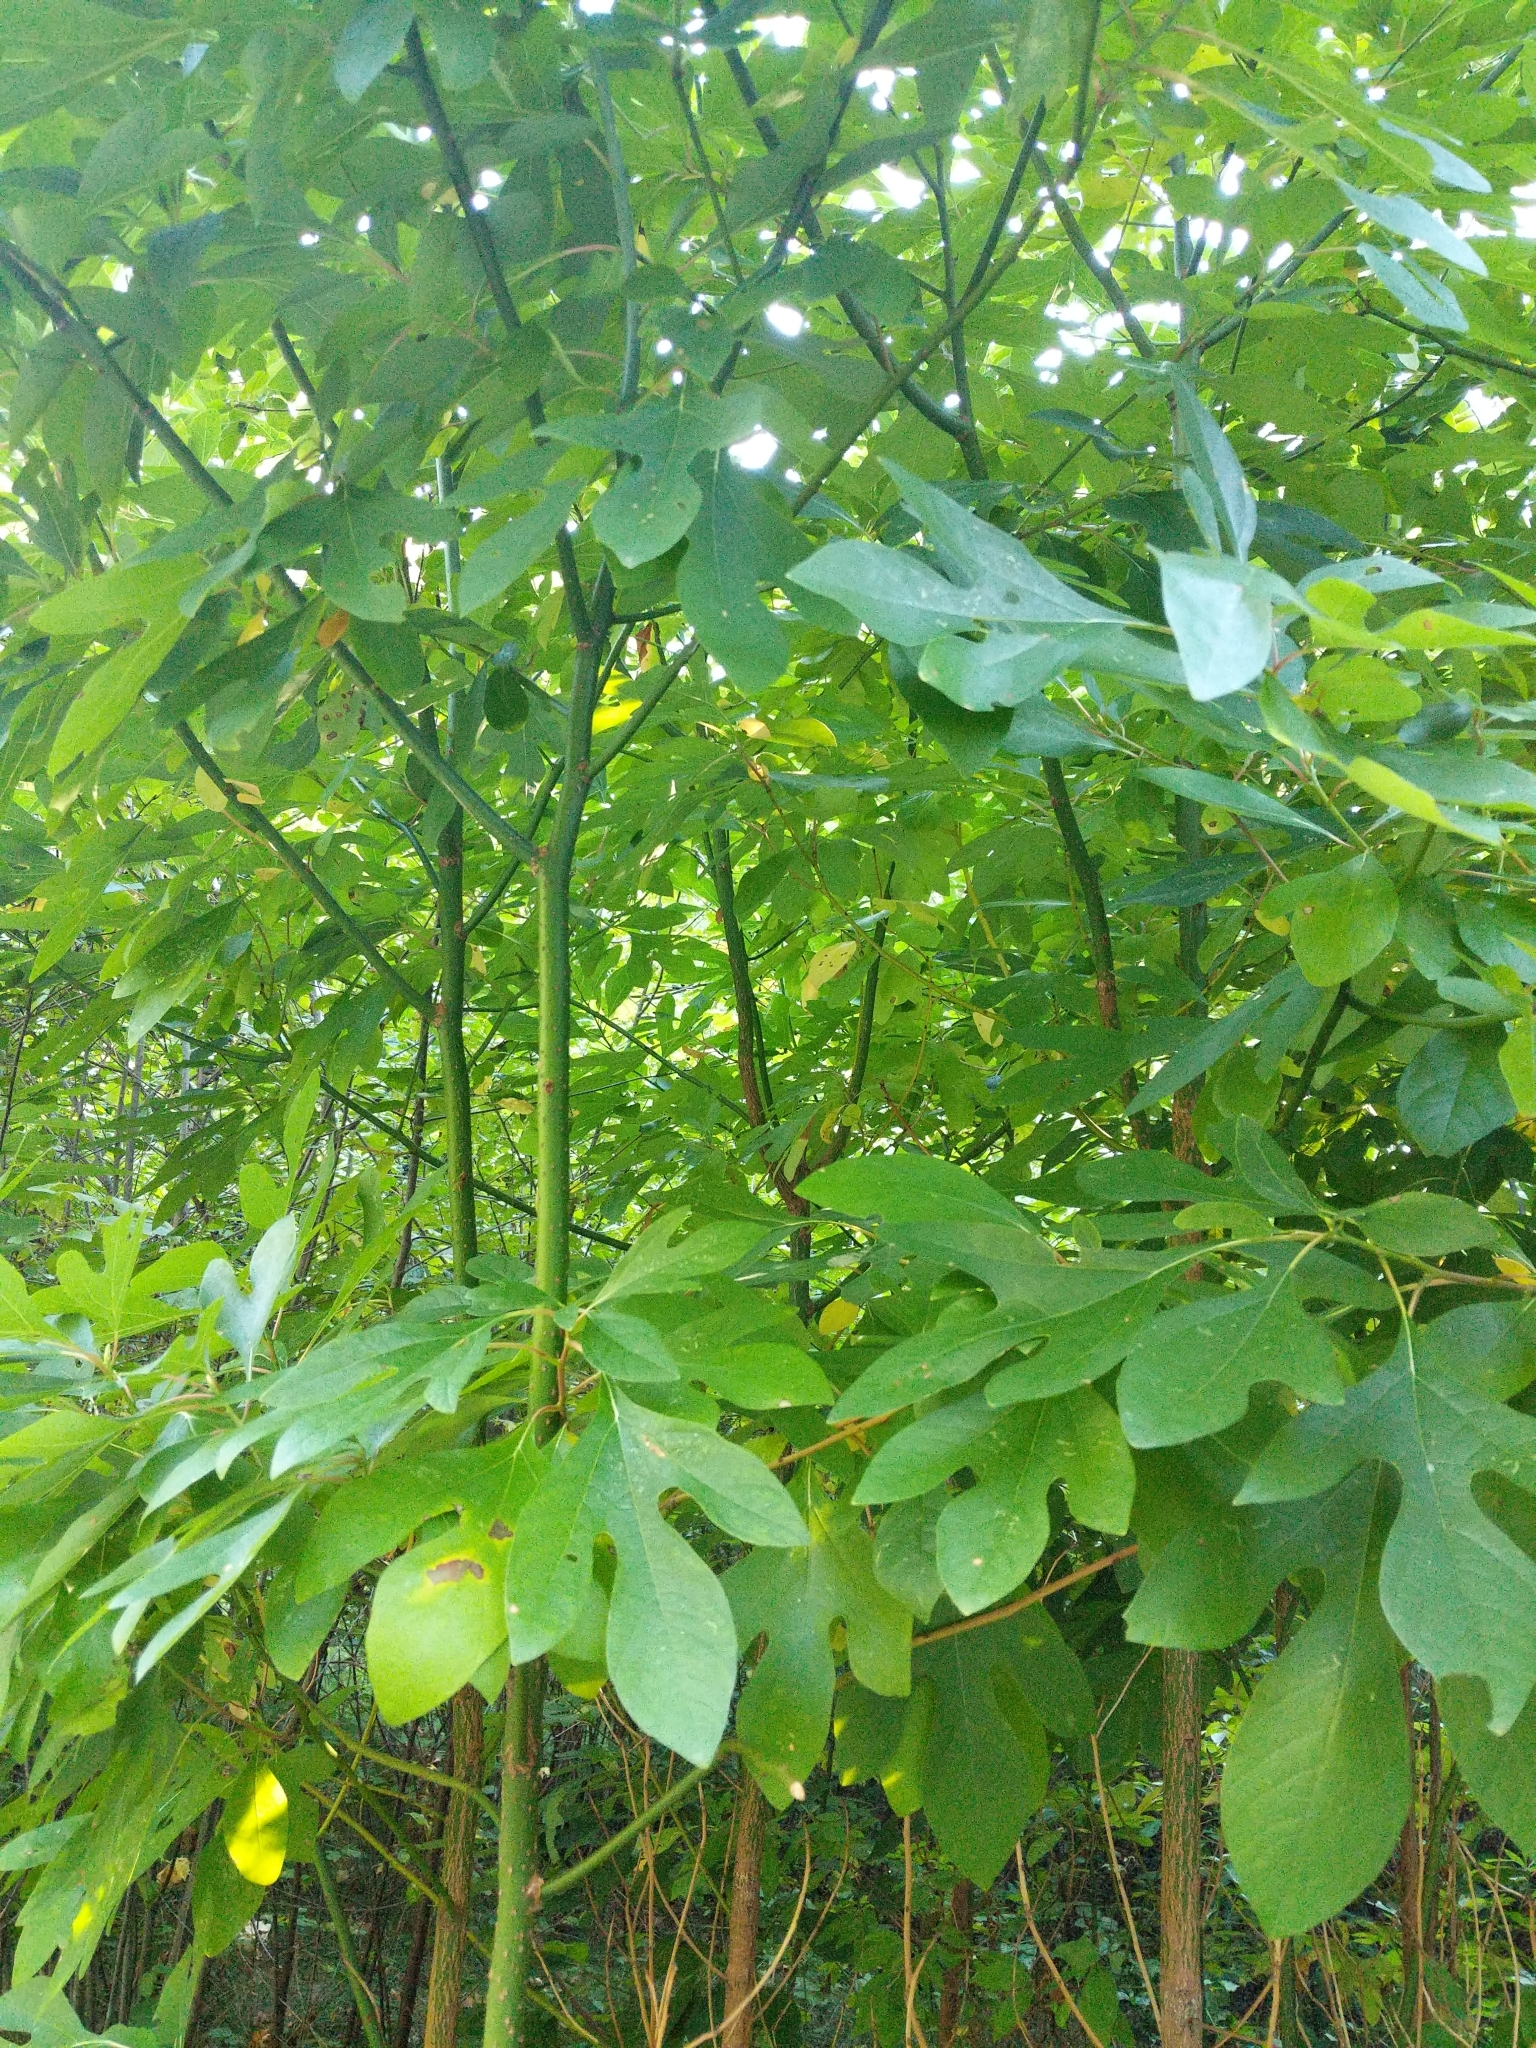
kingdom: Plantae
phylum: Tracheophyta
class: Magnoliopsida
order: Laurales
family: Lauraceae
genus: Sassafras
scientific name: Sassafras albidum
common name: Sassafras
